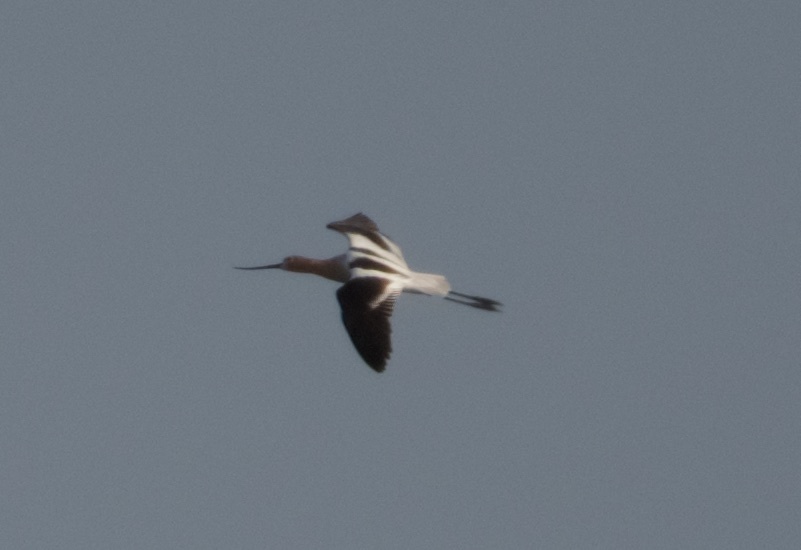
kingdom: Animalia
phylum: Chordata
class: Aves
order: Charadriiformes
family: Recurvirostridae
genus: Recurvirostra
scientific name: Recurvirostra americana
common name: American avocet
